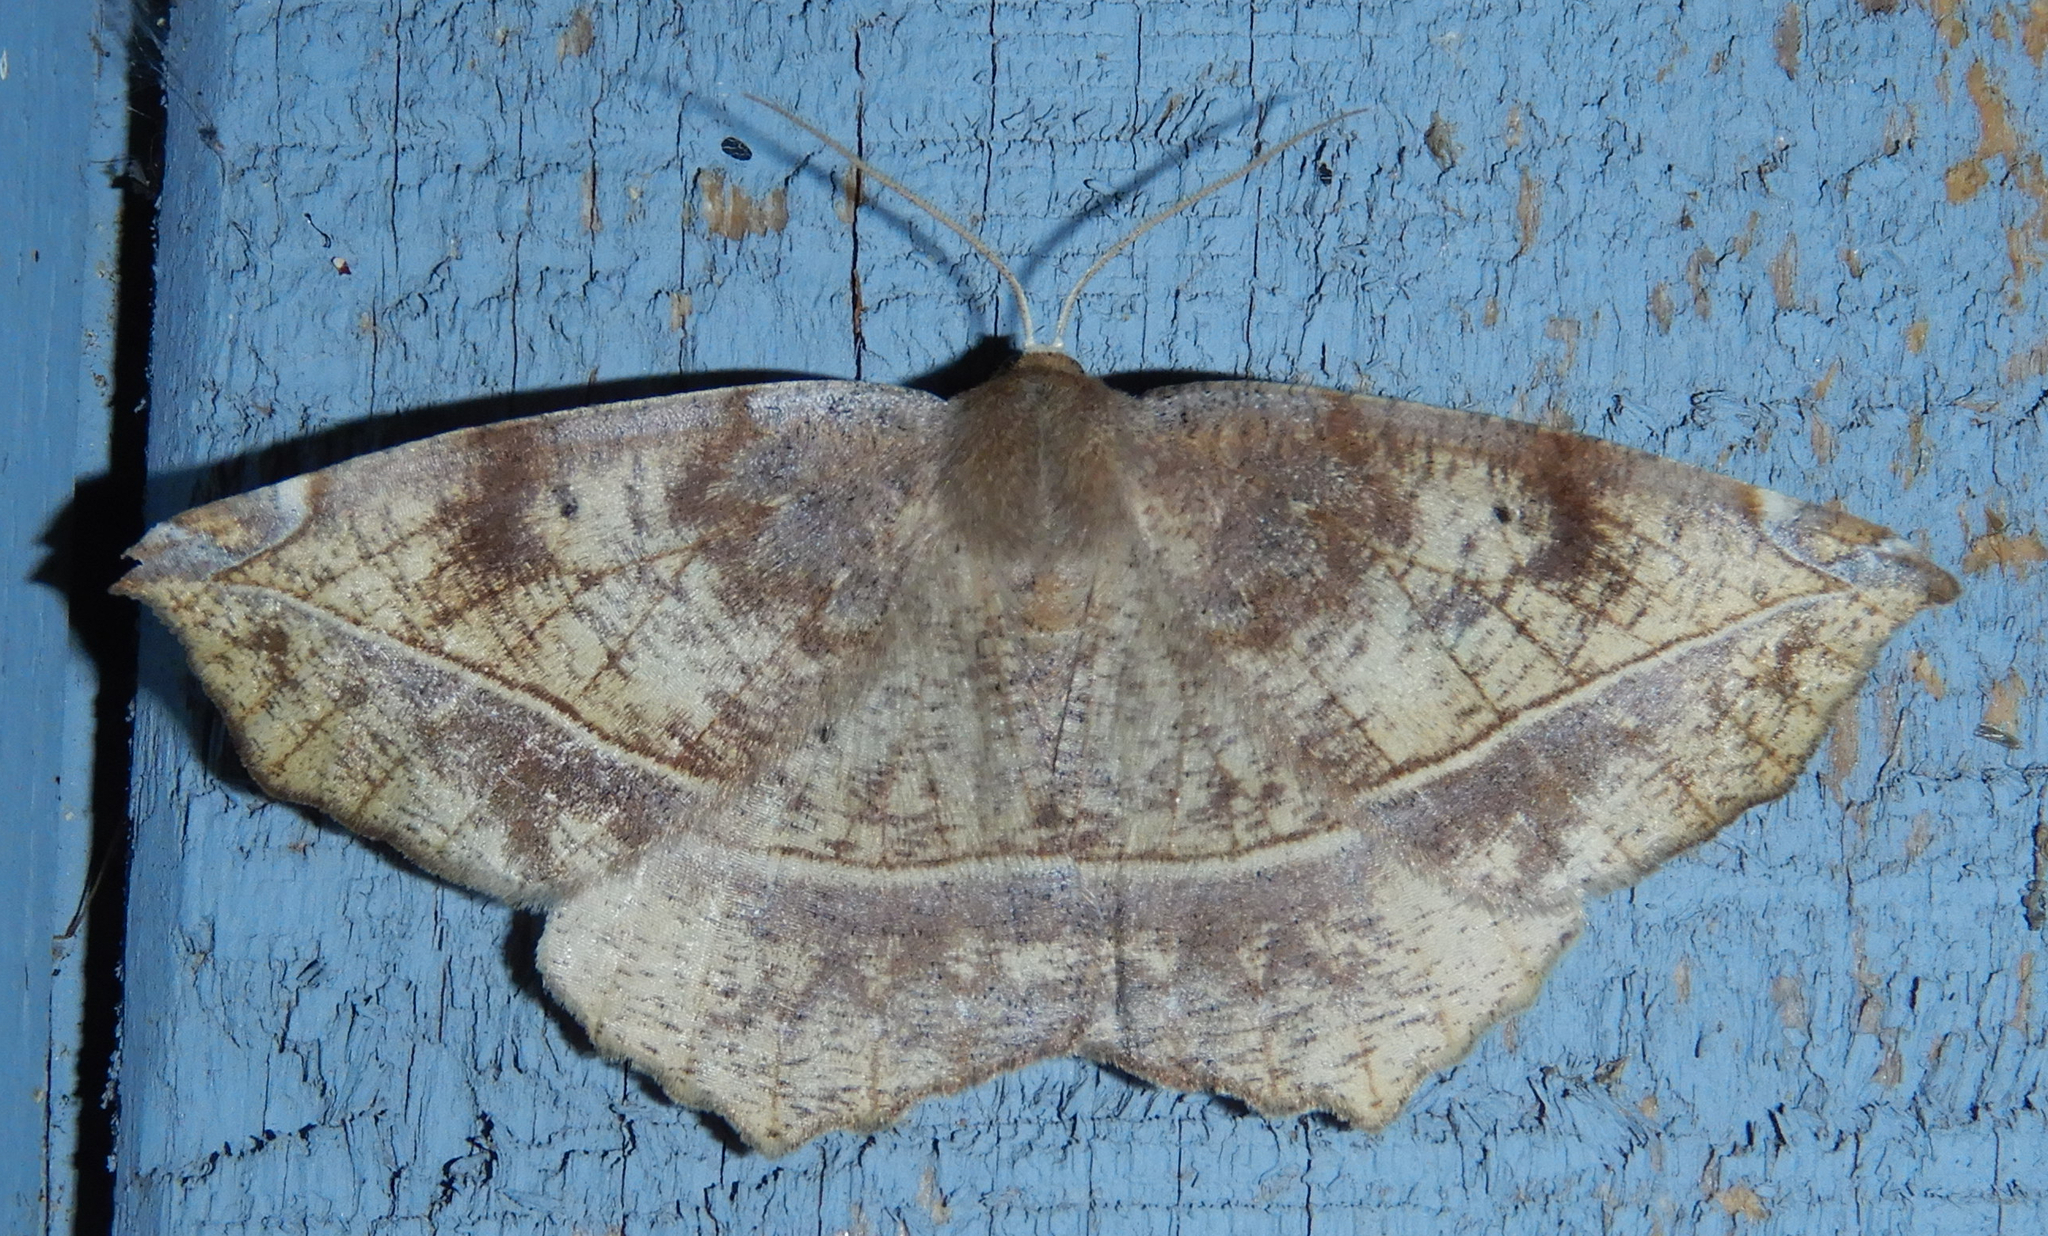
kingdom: Animalia
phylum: Arthropoda
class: Insecta
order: Lepidoptera
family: Geometridae
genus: Eutrapela
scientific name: Eutrapela clemataria
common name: Curved-toothed geometer
